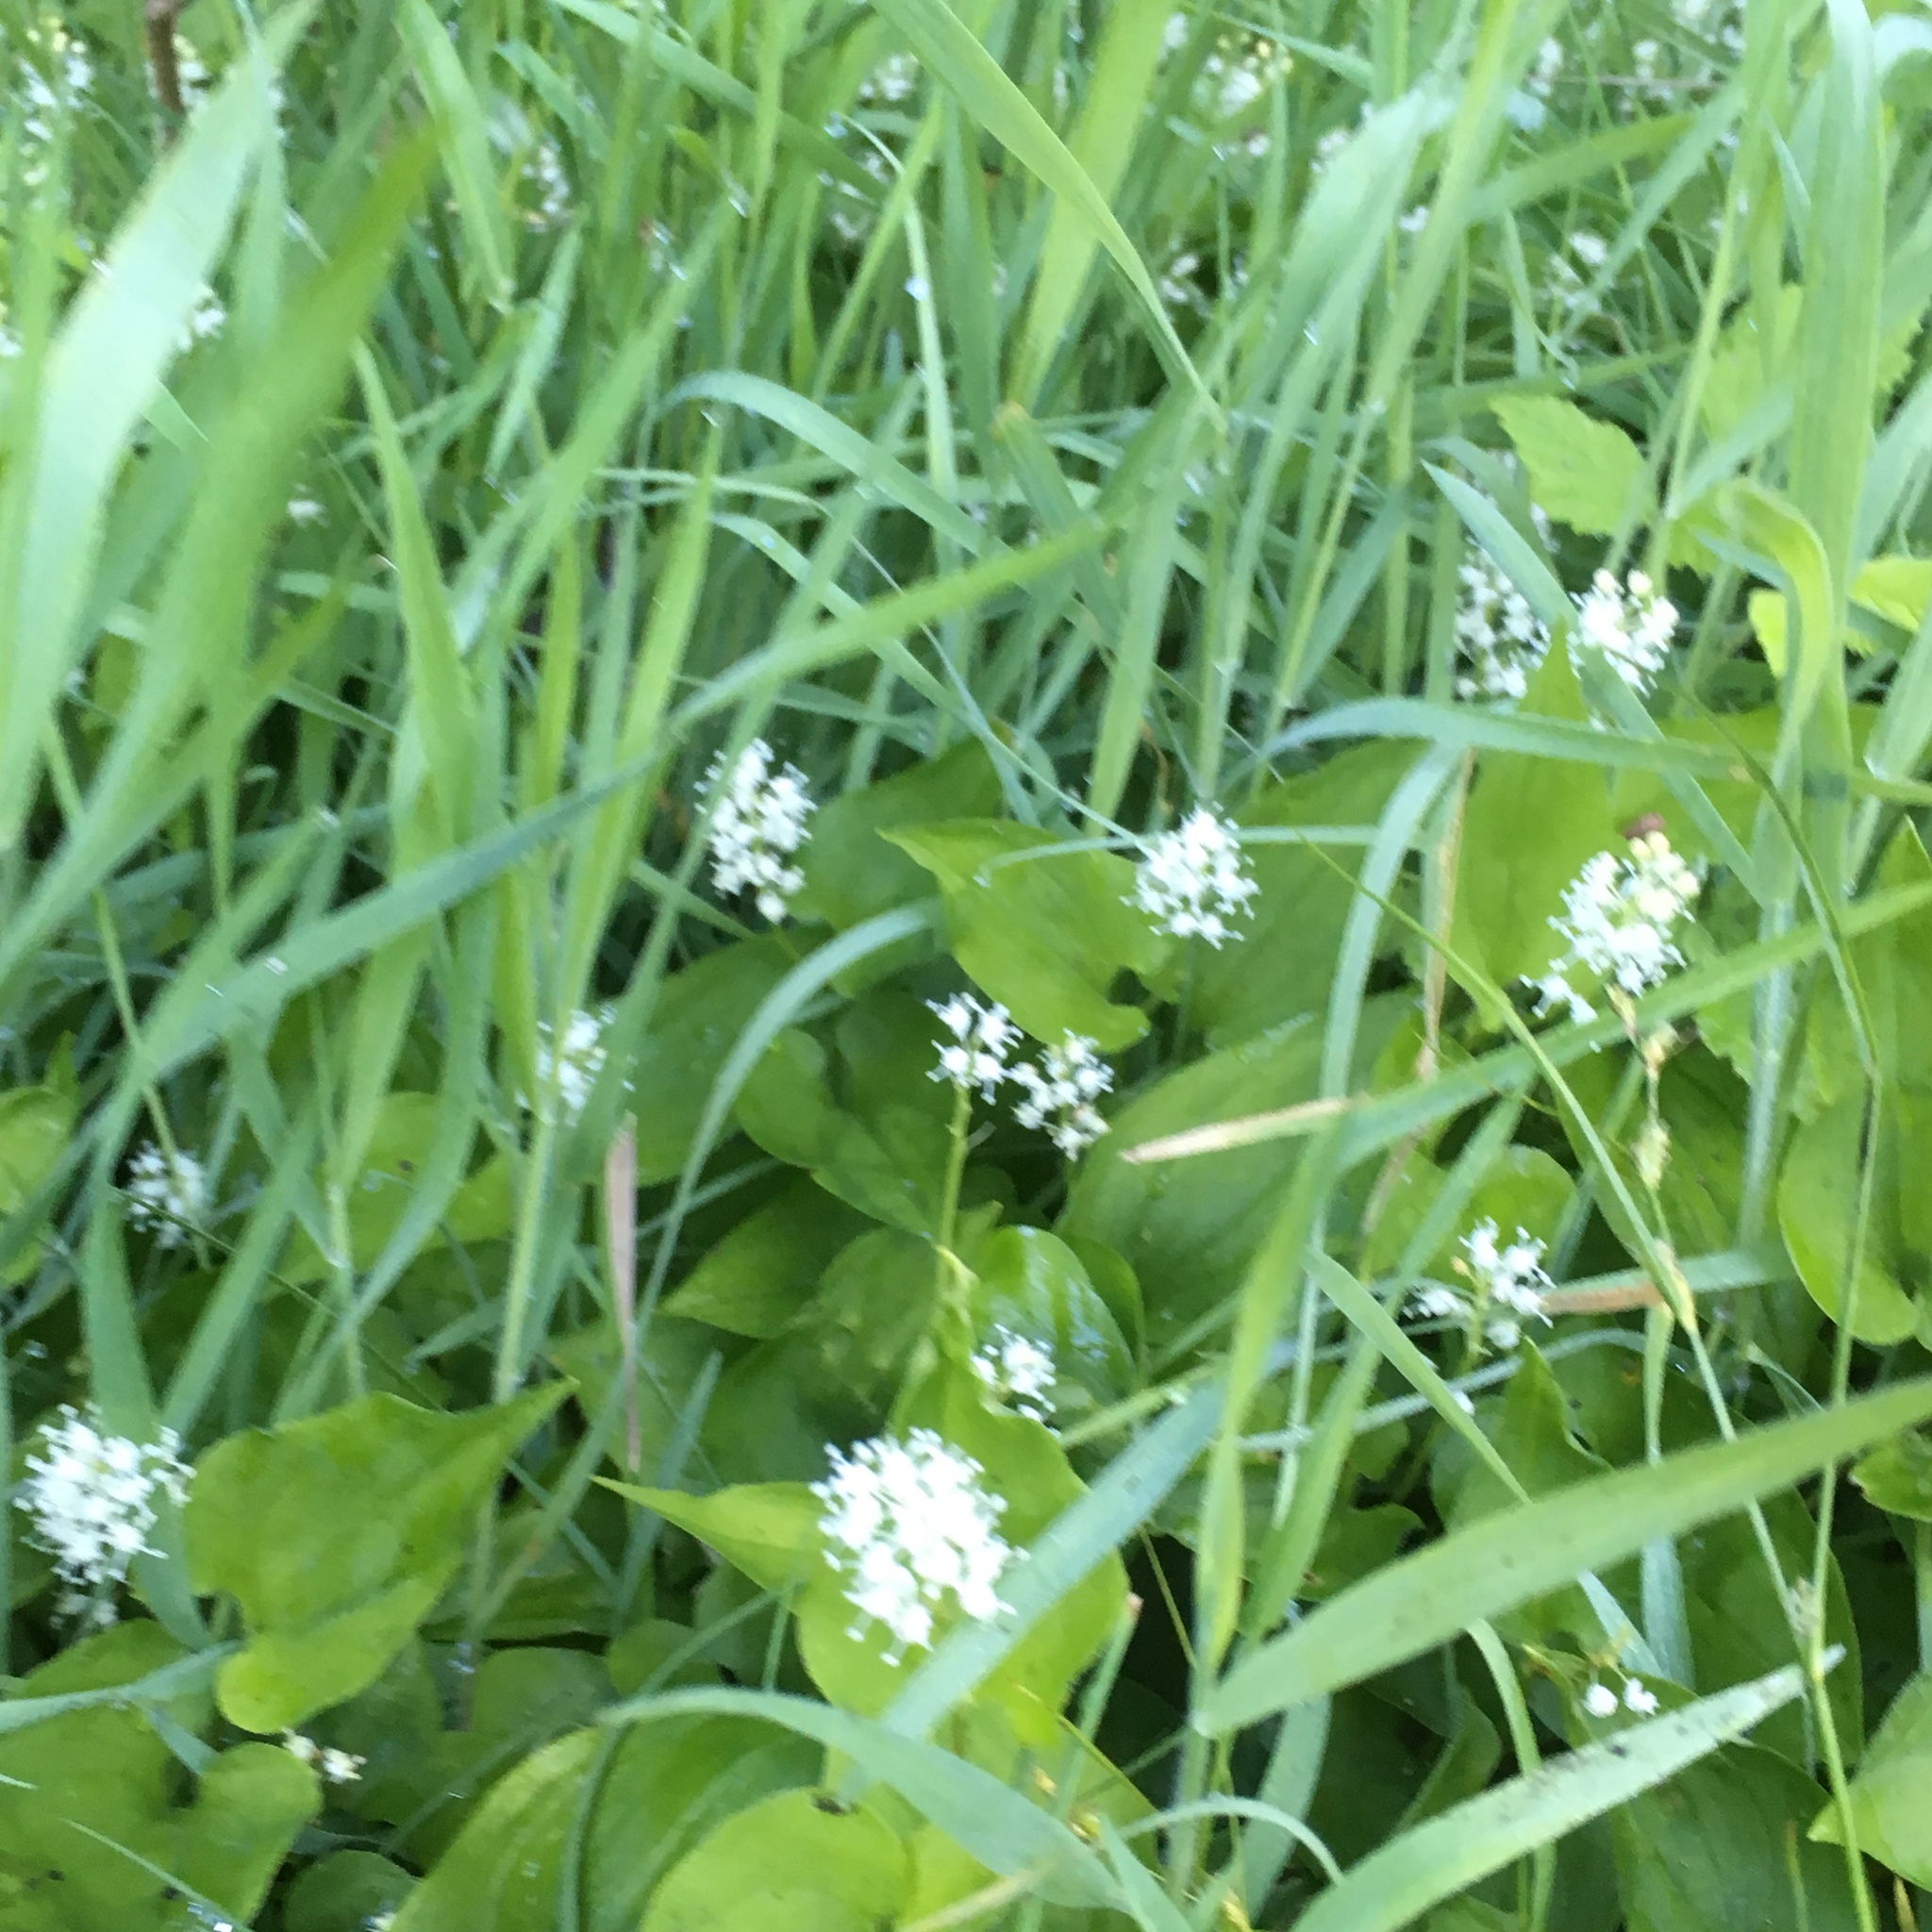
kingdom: Plantae
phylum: Tracheophyta
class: Liliopsida
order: Asparagales
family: Asparagaceae
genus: Maianthemum
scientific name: Maianthemum bifolium
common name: May lily
